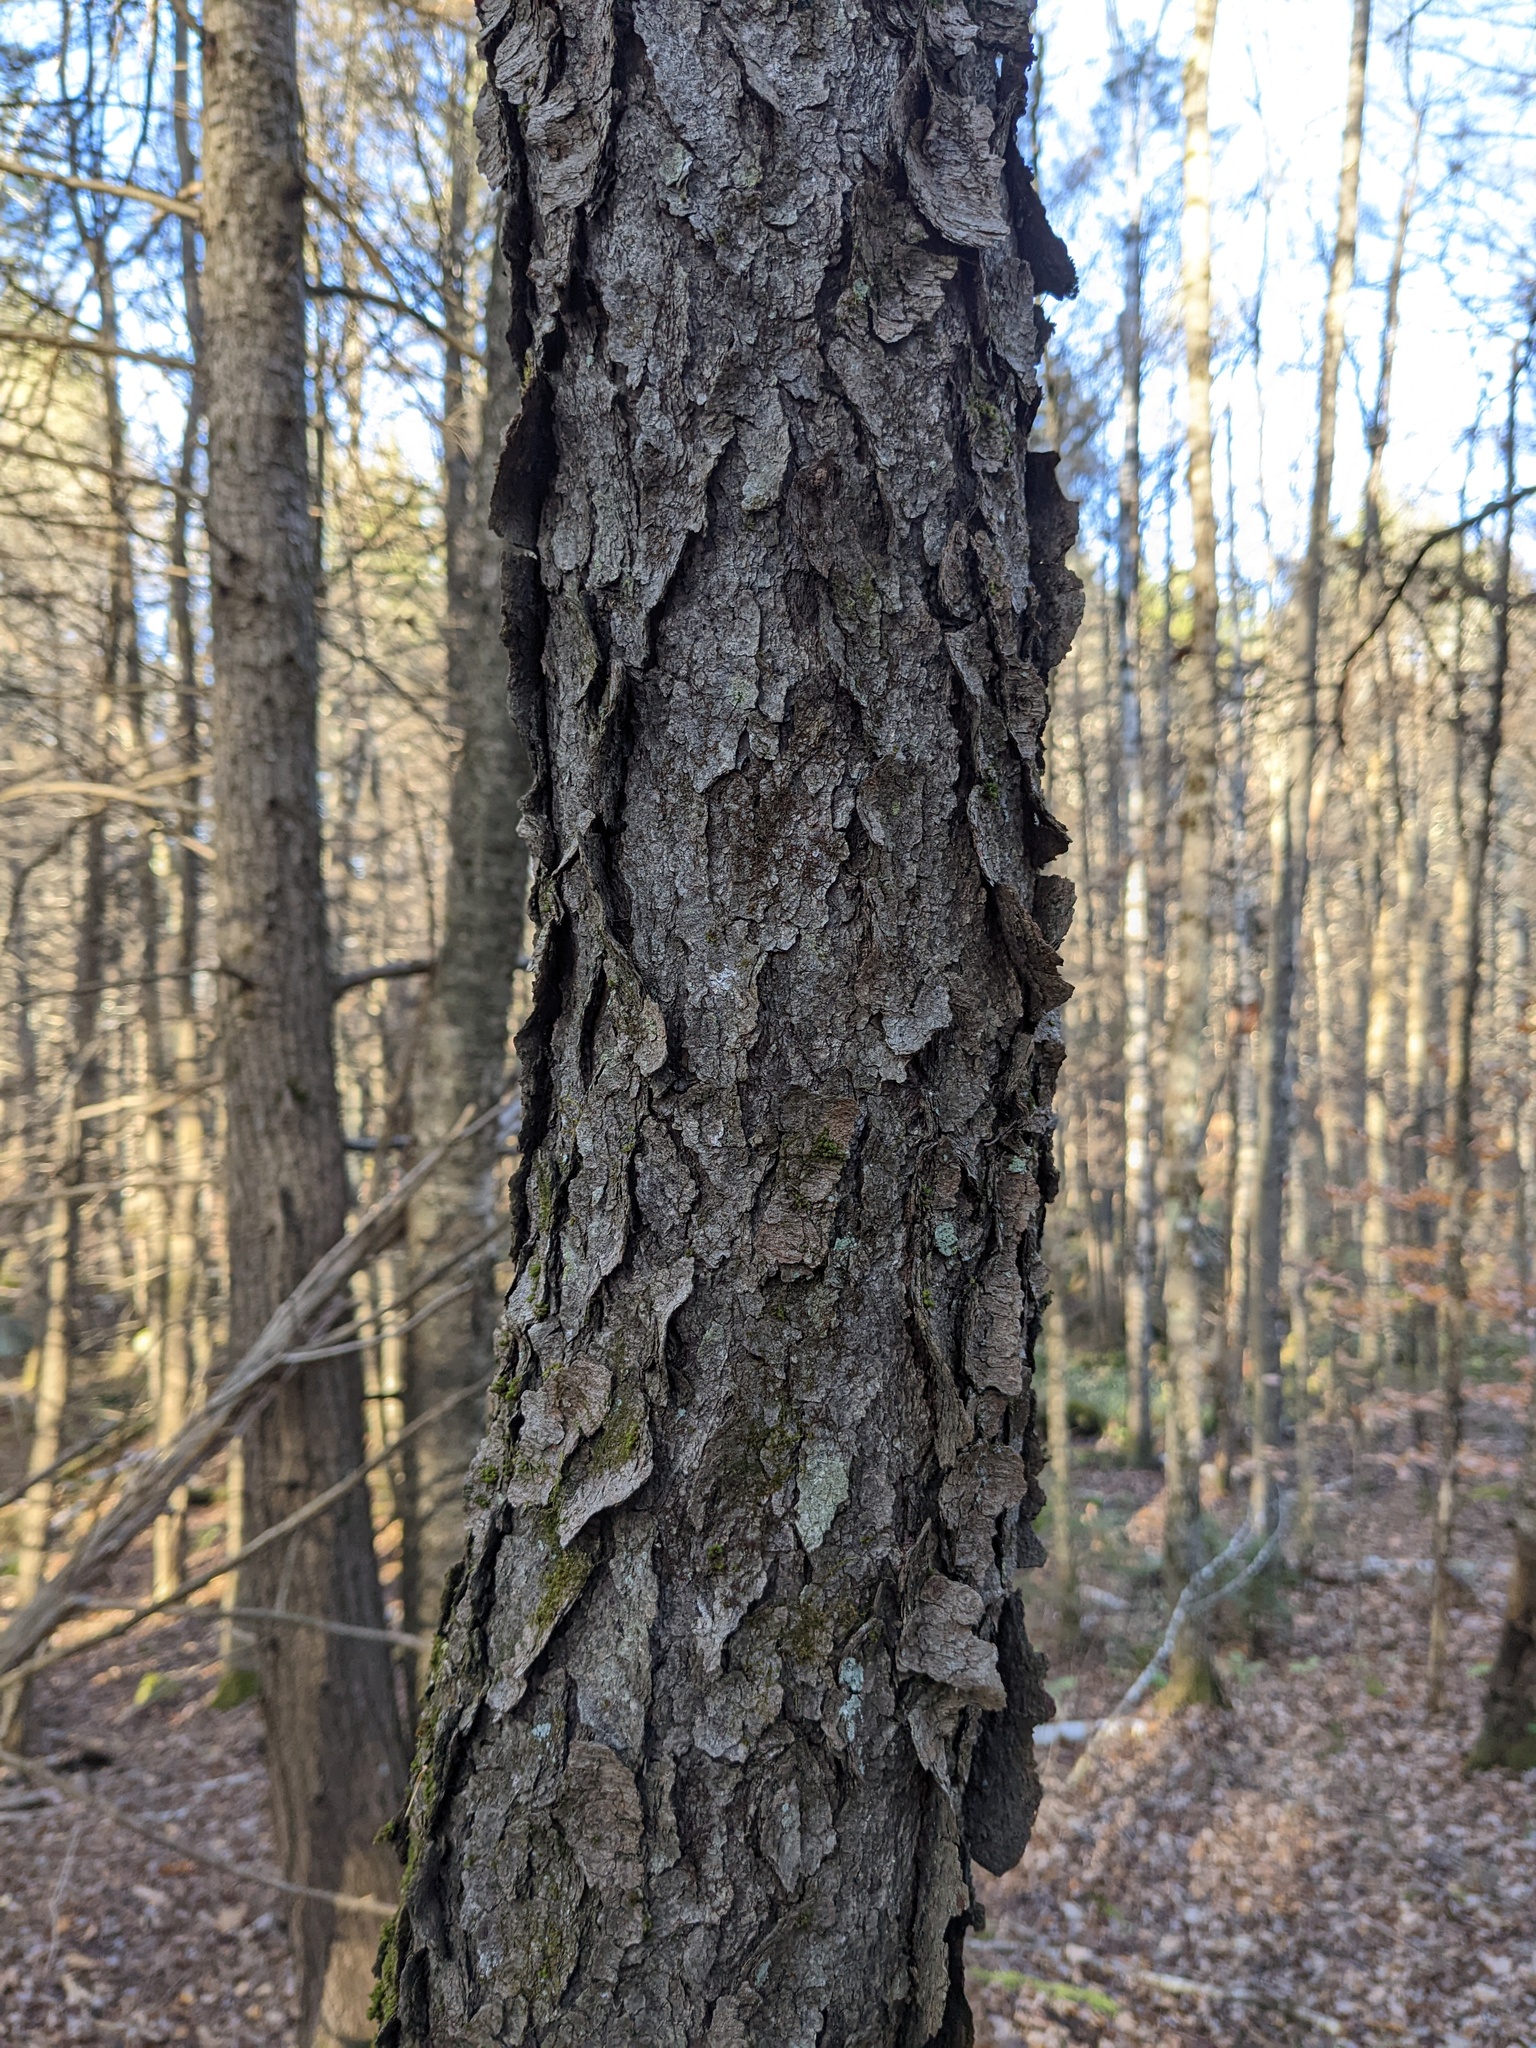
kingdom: Plantae
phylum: Tracheophyta
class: Magnoliopsida
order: Rosales
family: Rosaceae
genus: Prunus
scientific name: Prunus serotina
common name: Black cherry
